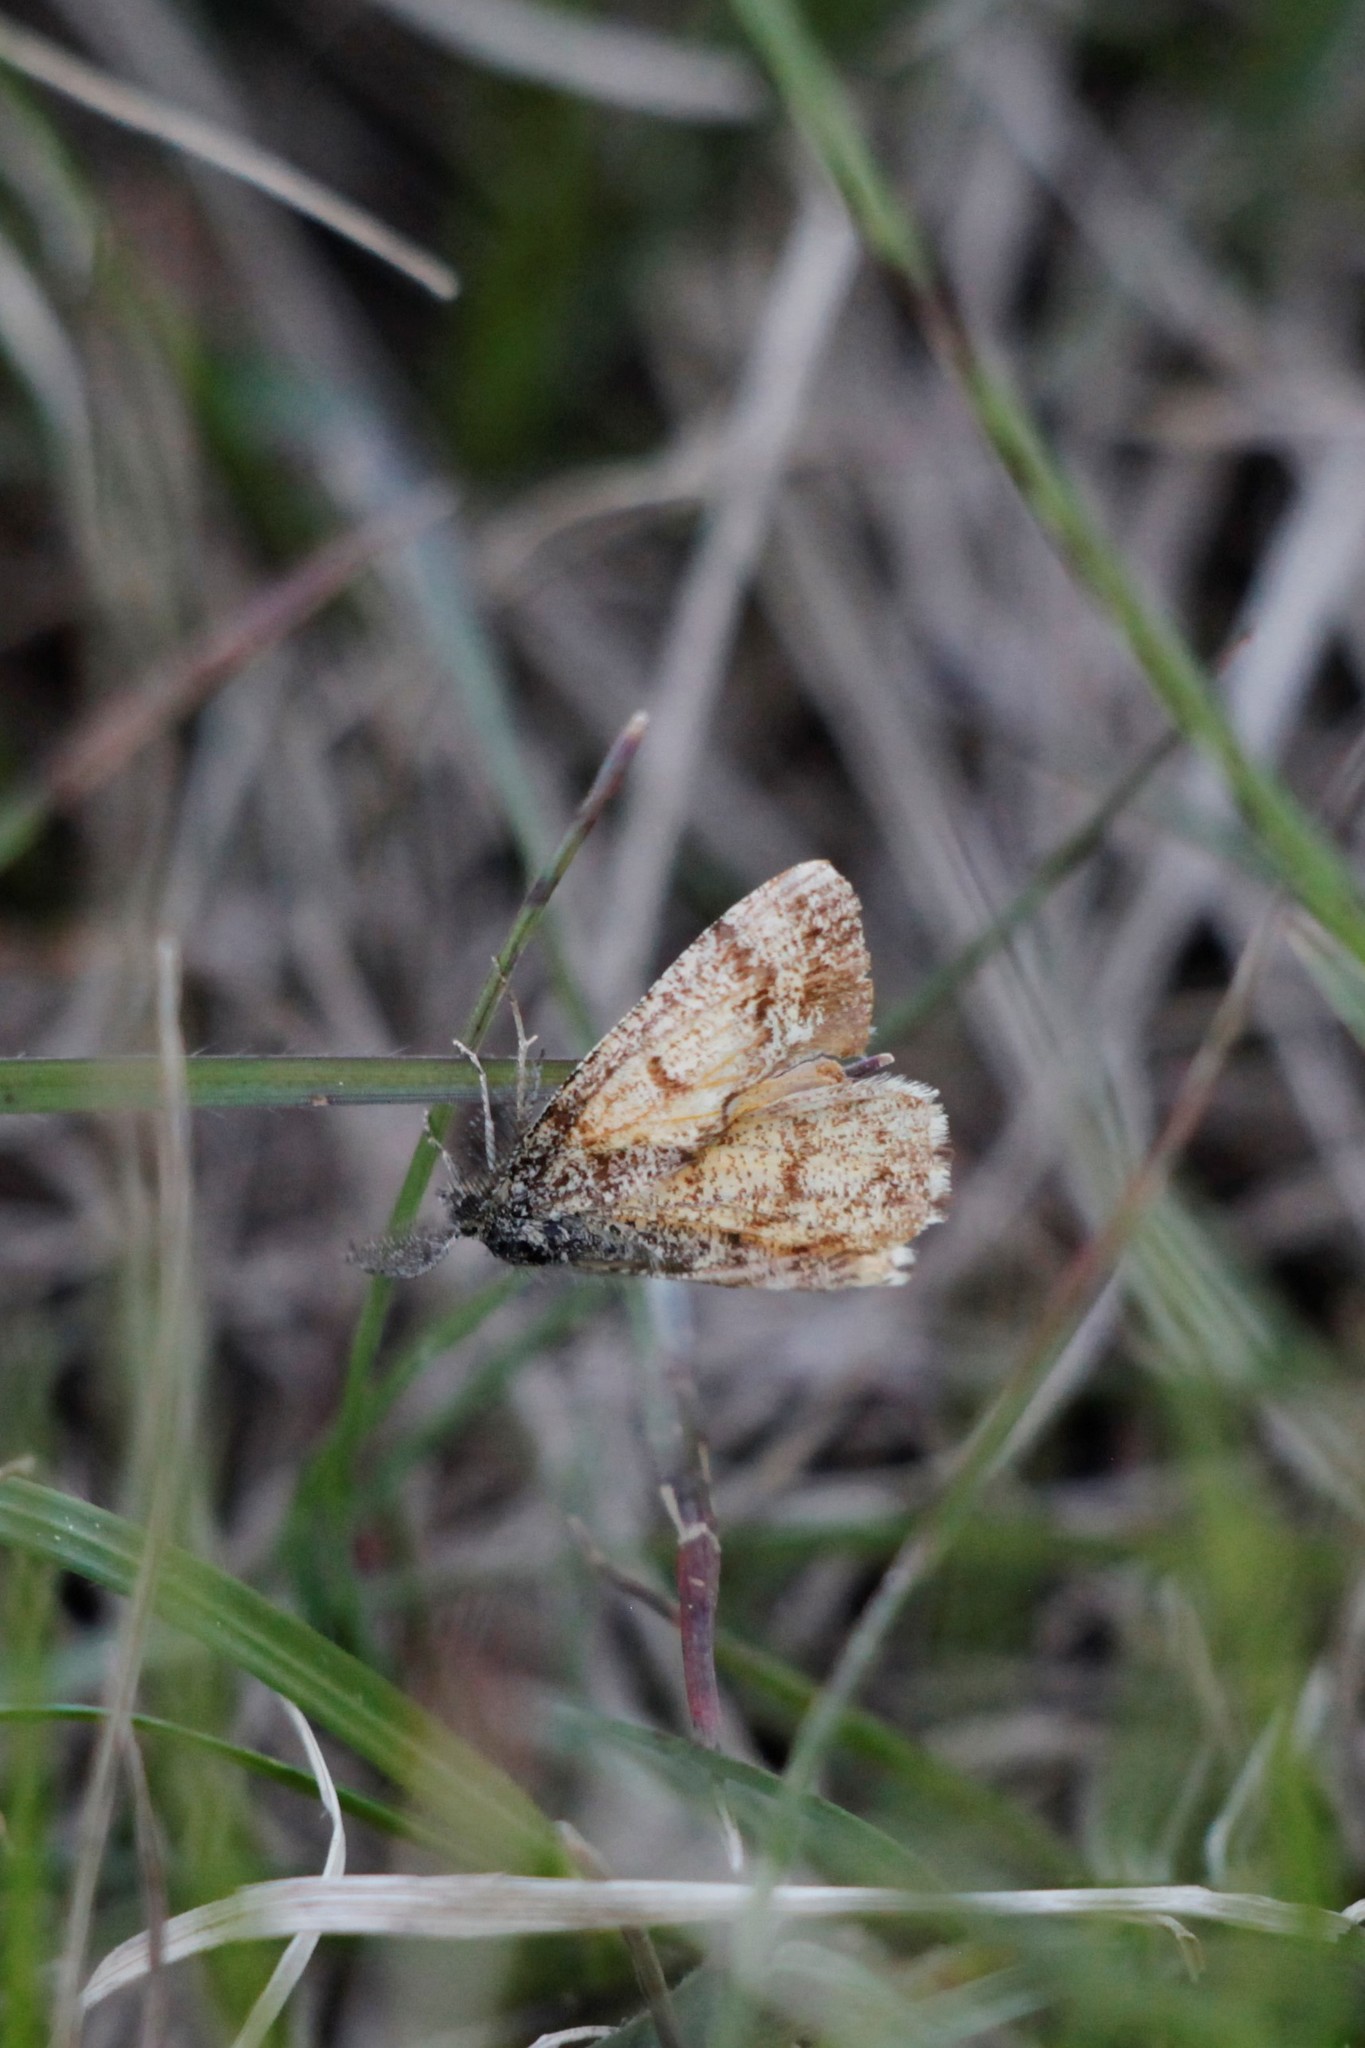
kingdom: Animalia
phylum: Arthropoda
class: Insecta
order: Lepidoptera
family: Geometridae
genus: Ematurga
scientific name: Ematurga atomaria
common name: Common heath
